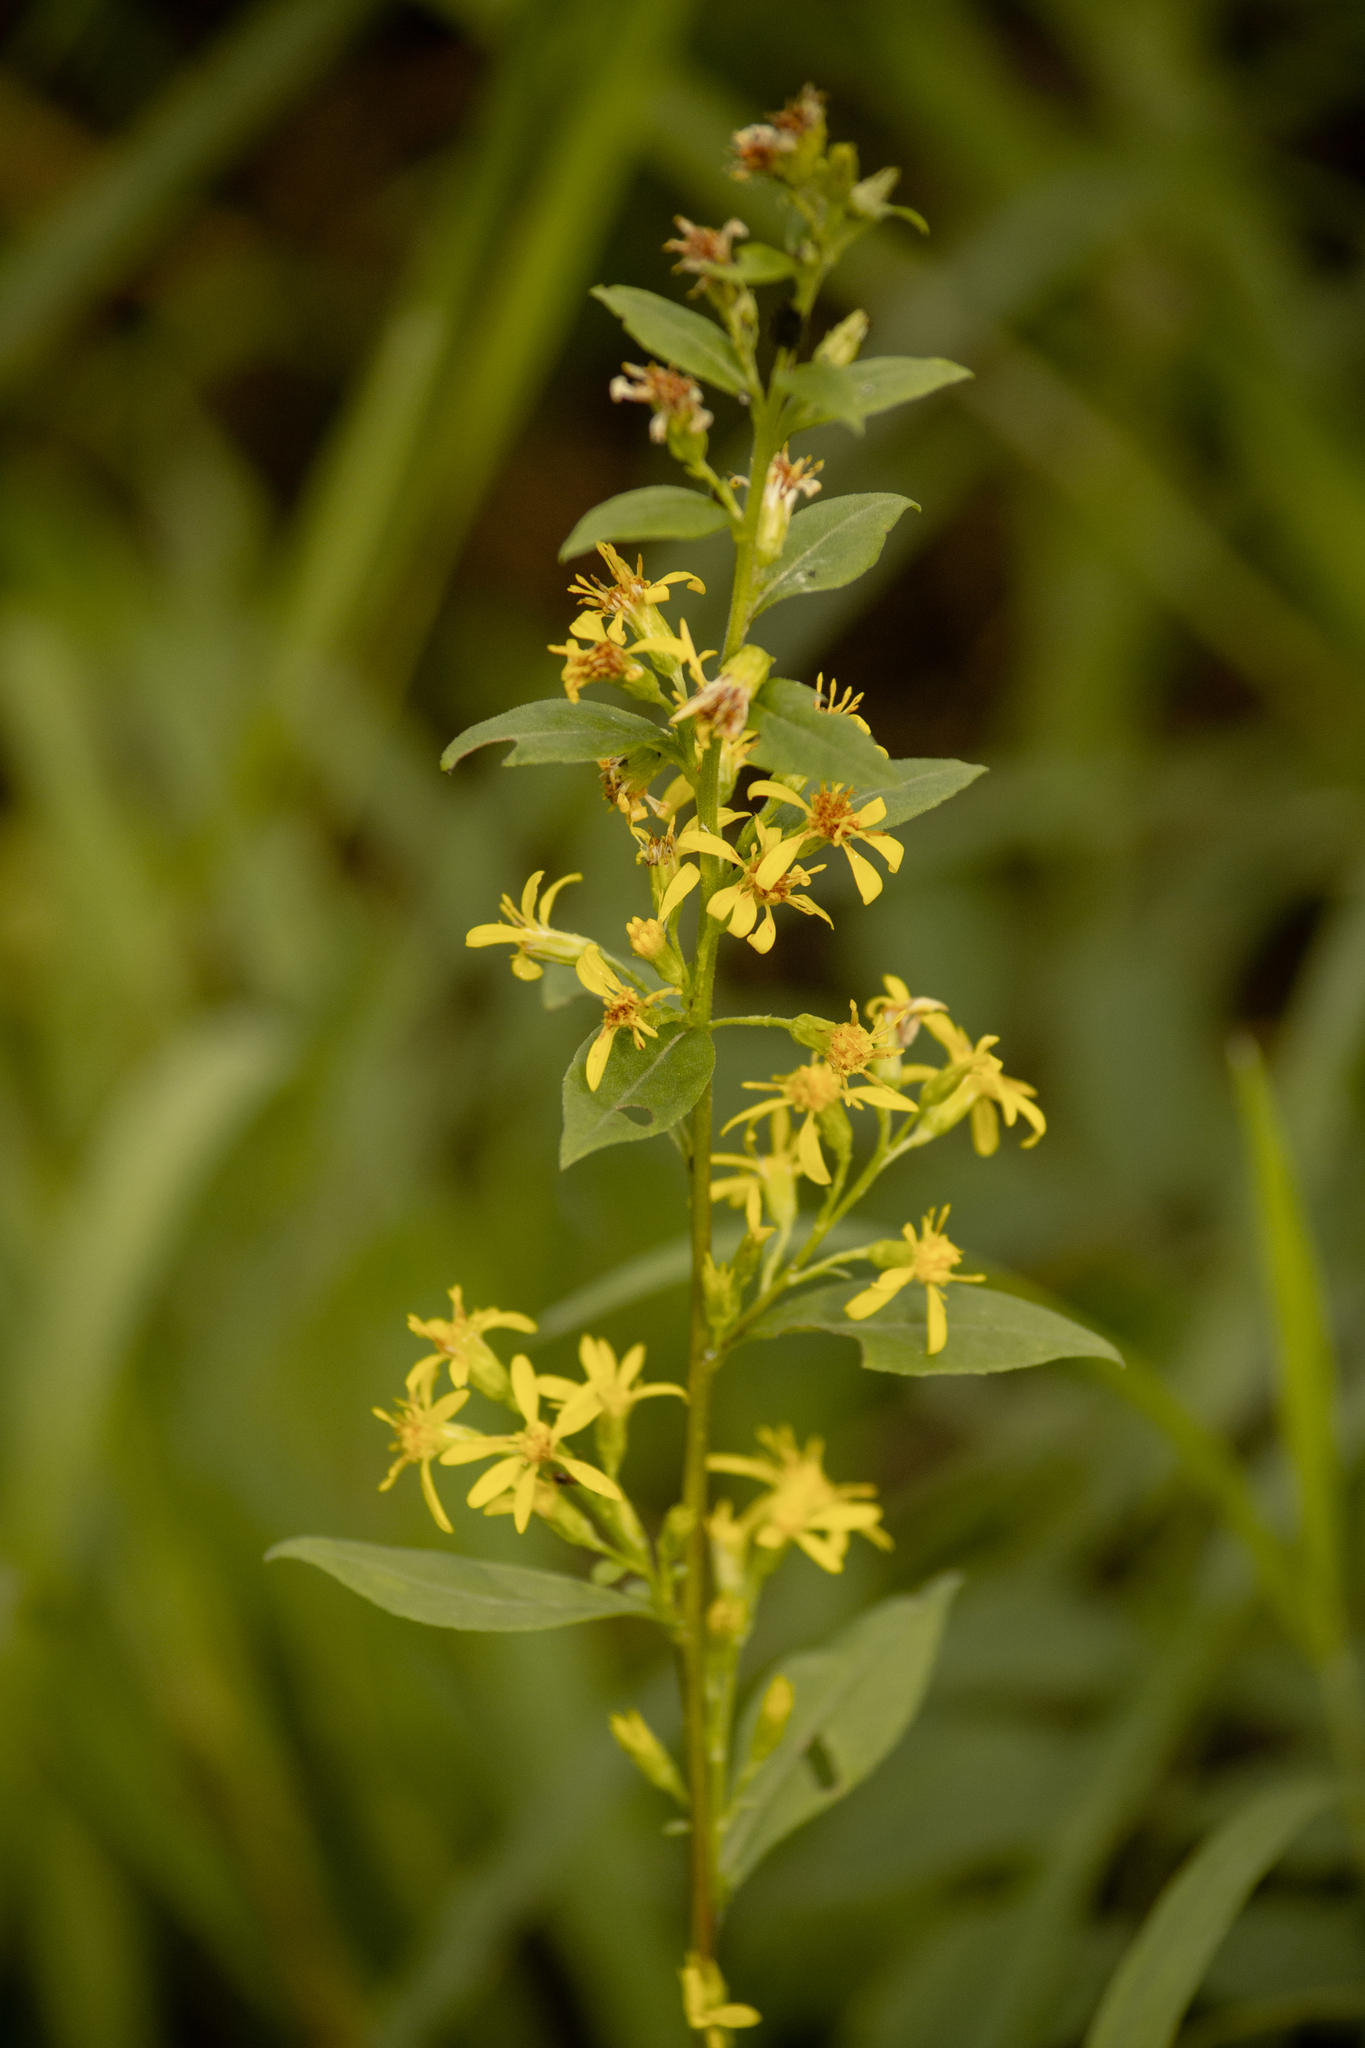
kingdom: Plantae
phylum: Tracheophyta
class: Magnoliopsida
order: Asterales
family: Asteraceae
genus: Solidago
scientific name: Solidago virgaurea
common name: Goldenrod
